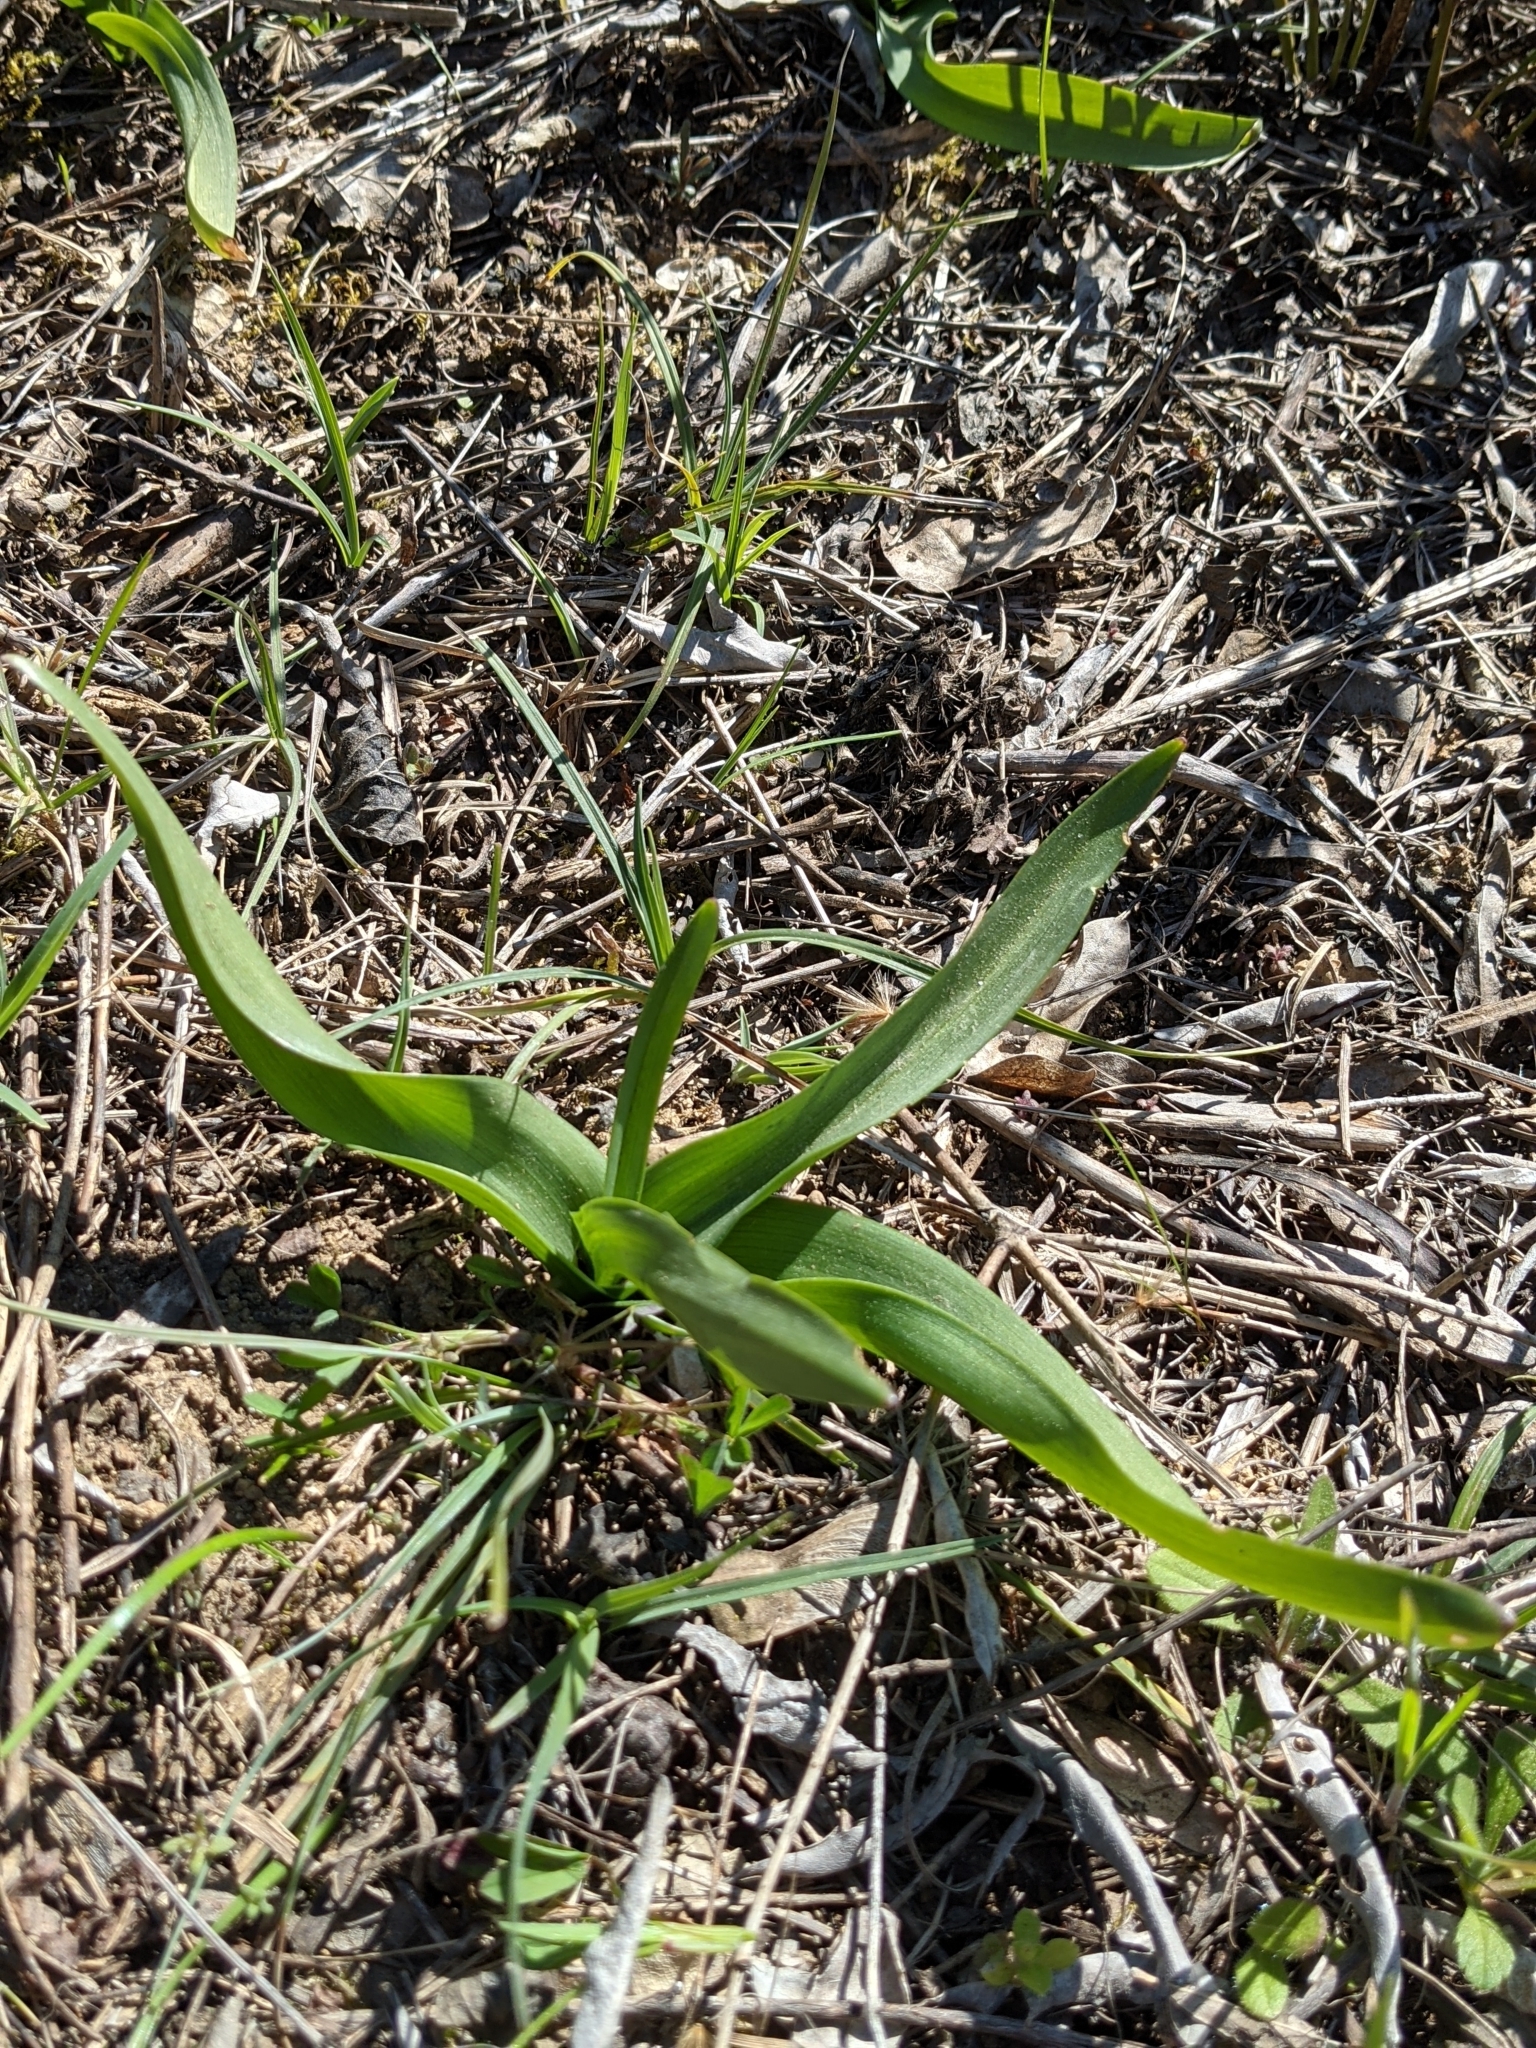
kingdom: Plantae
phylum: Tracheophyta
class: Liliopsida
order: Liliales
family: Colchicaceae
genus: Colchicum
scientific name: Colchicum longifolium
